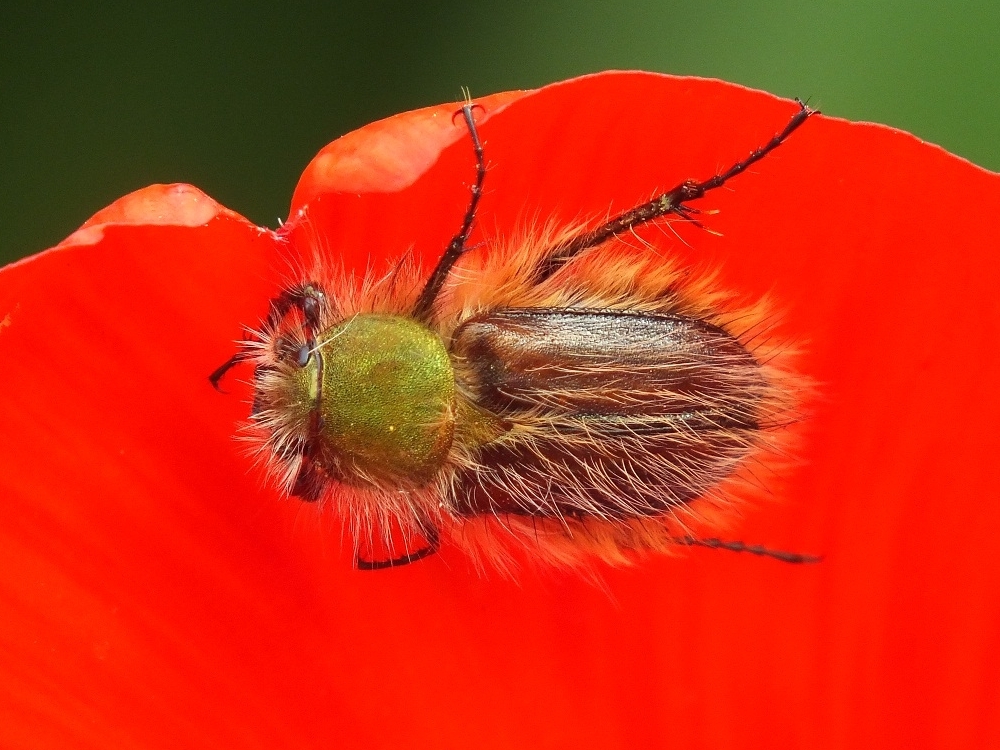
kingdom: Animalia
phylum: Arthropoda
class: Insecta
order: Coleoptera
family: Glaphyridae
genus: Pygopleurus
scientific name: Pygopleurus vulpes
